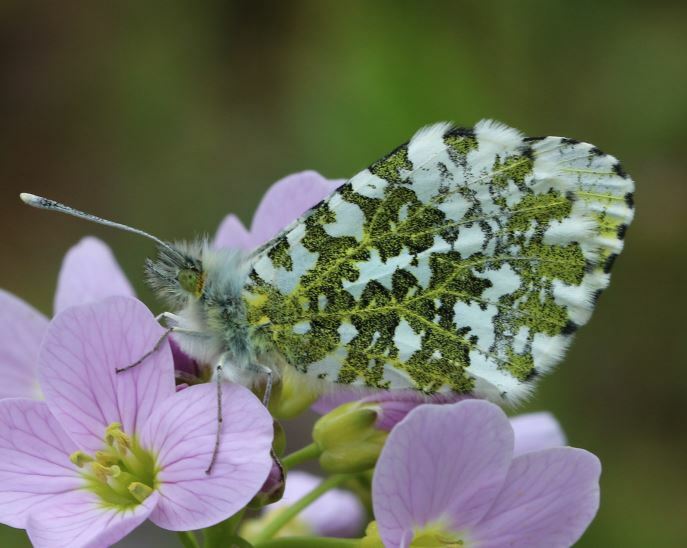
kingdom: Animalia
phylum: Arthropoda
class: Insecta
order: Lepidoptera
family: Pieridae
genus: Anthocharis
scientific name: Anthocharis cardamines
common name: Orange-tip
